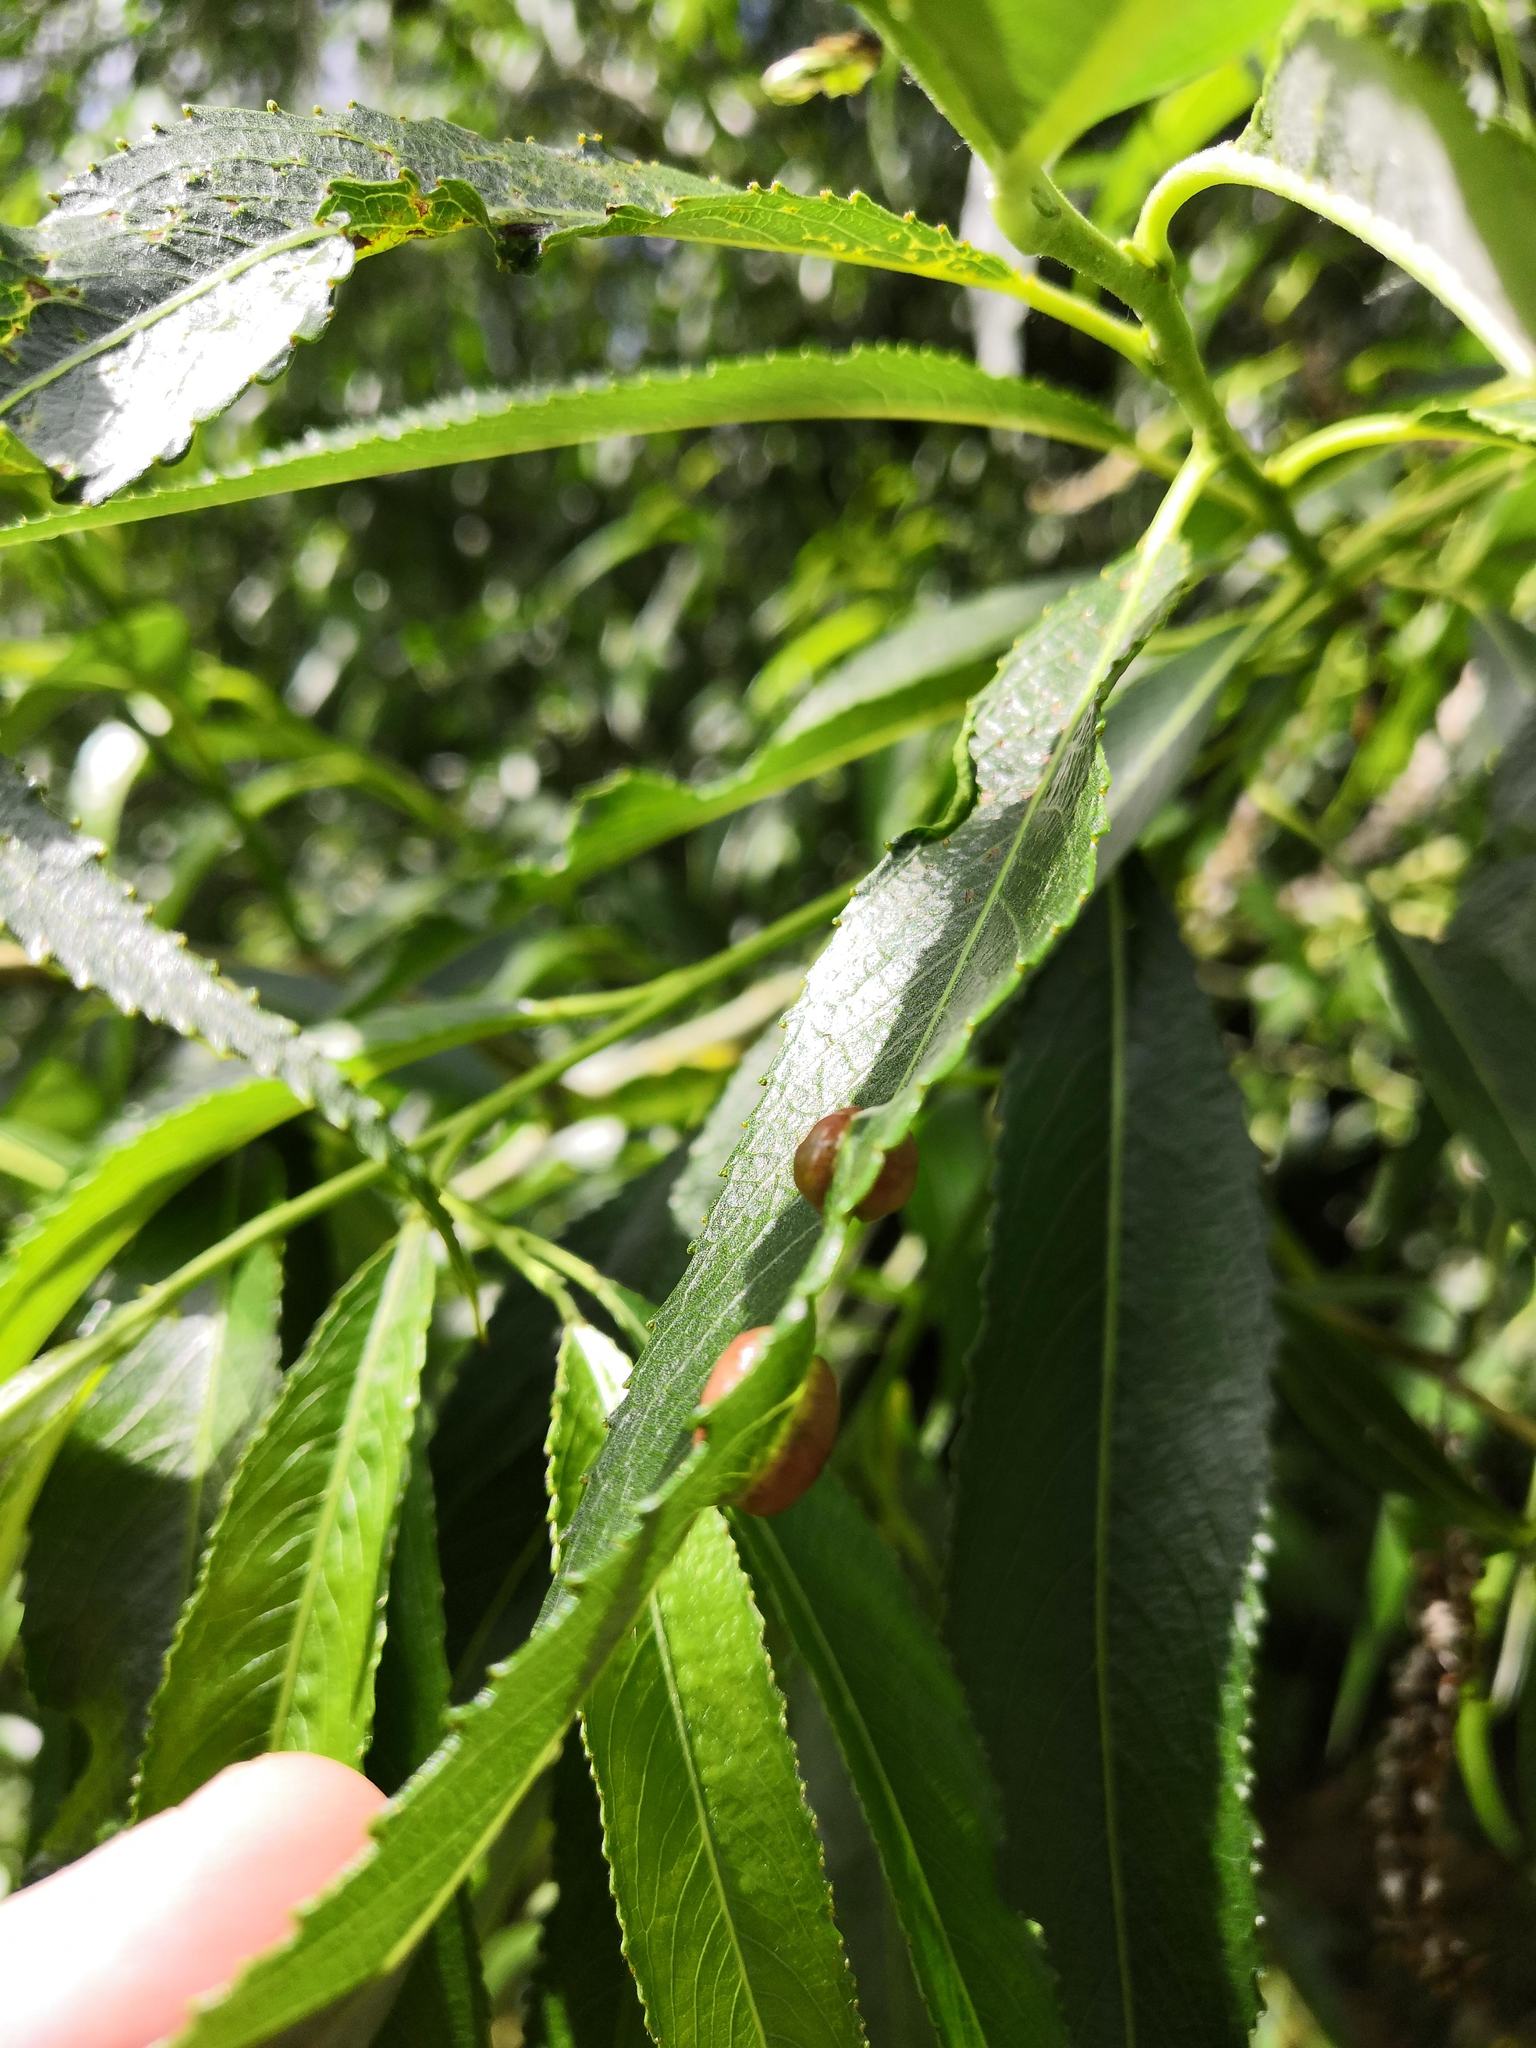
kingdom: Animalia
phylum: Arthropoda
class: Insecta
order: Hymenoptera
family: Tenthredinidae
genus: Pontania
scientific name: Pontania proxima
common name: Common sawfly
